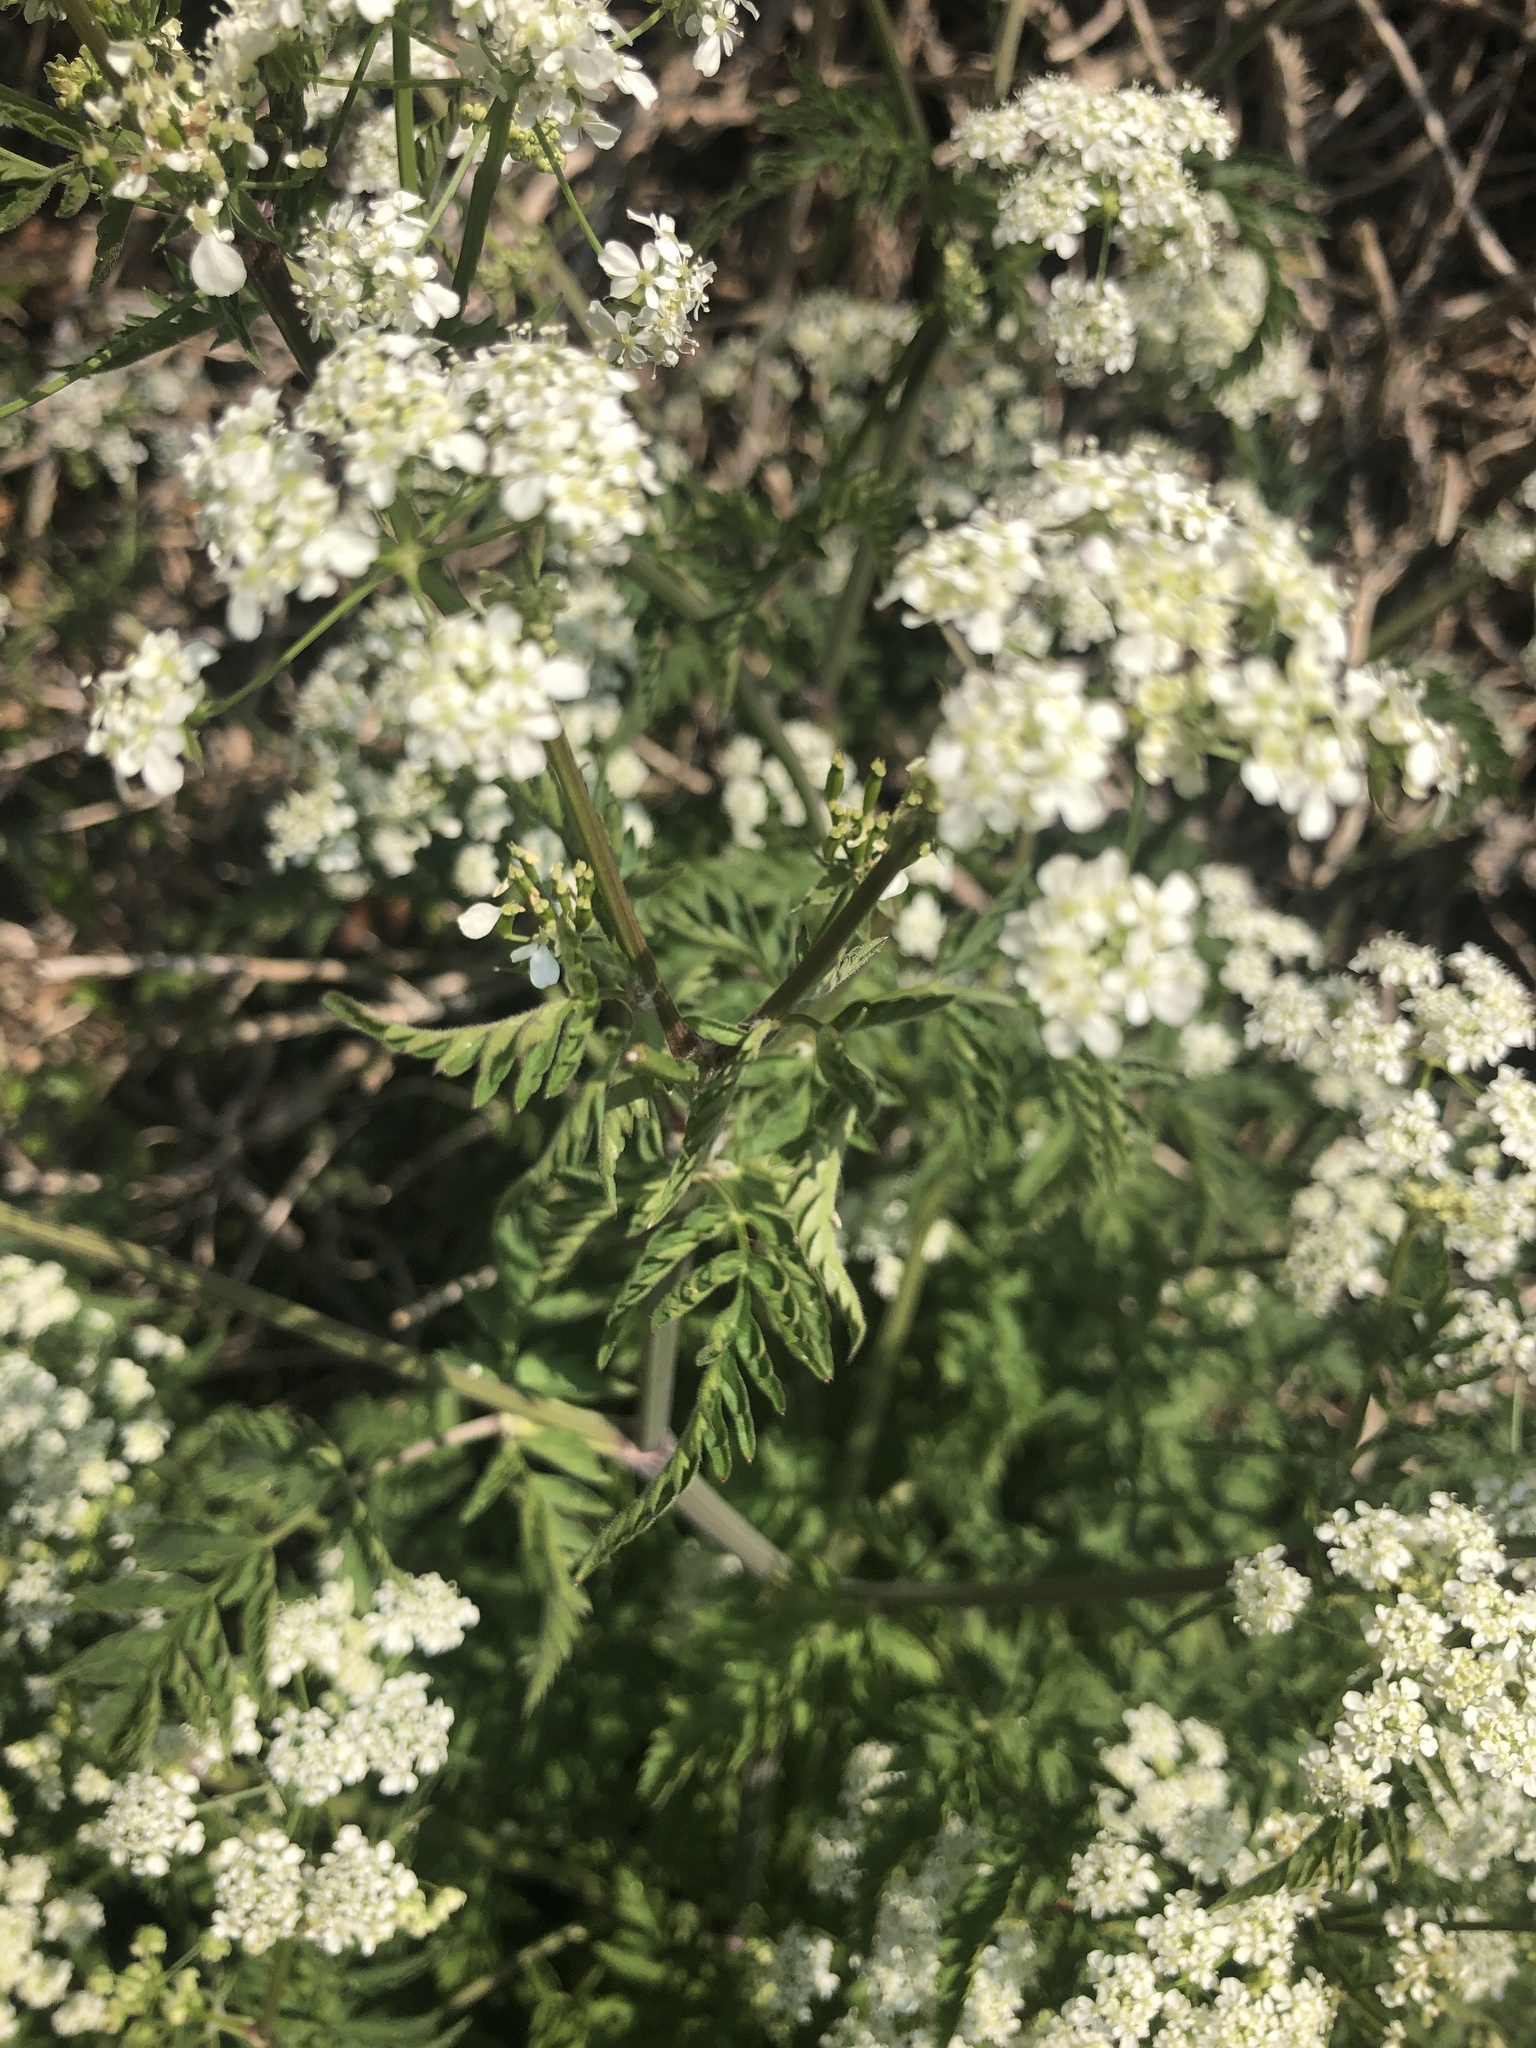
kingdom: Plantae
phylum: Tracheophyta
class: Magnoliopsida
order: Apiales
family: Apiaceae
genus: Anthriscus
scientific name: Anthriscus sylvestris
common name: Cow parsley
